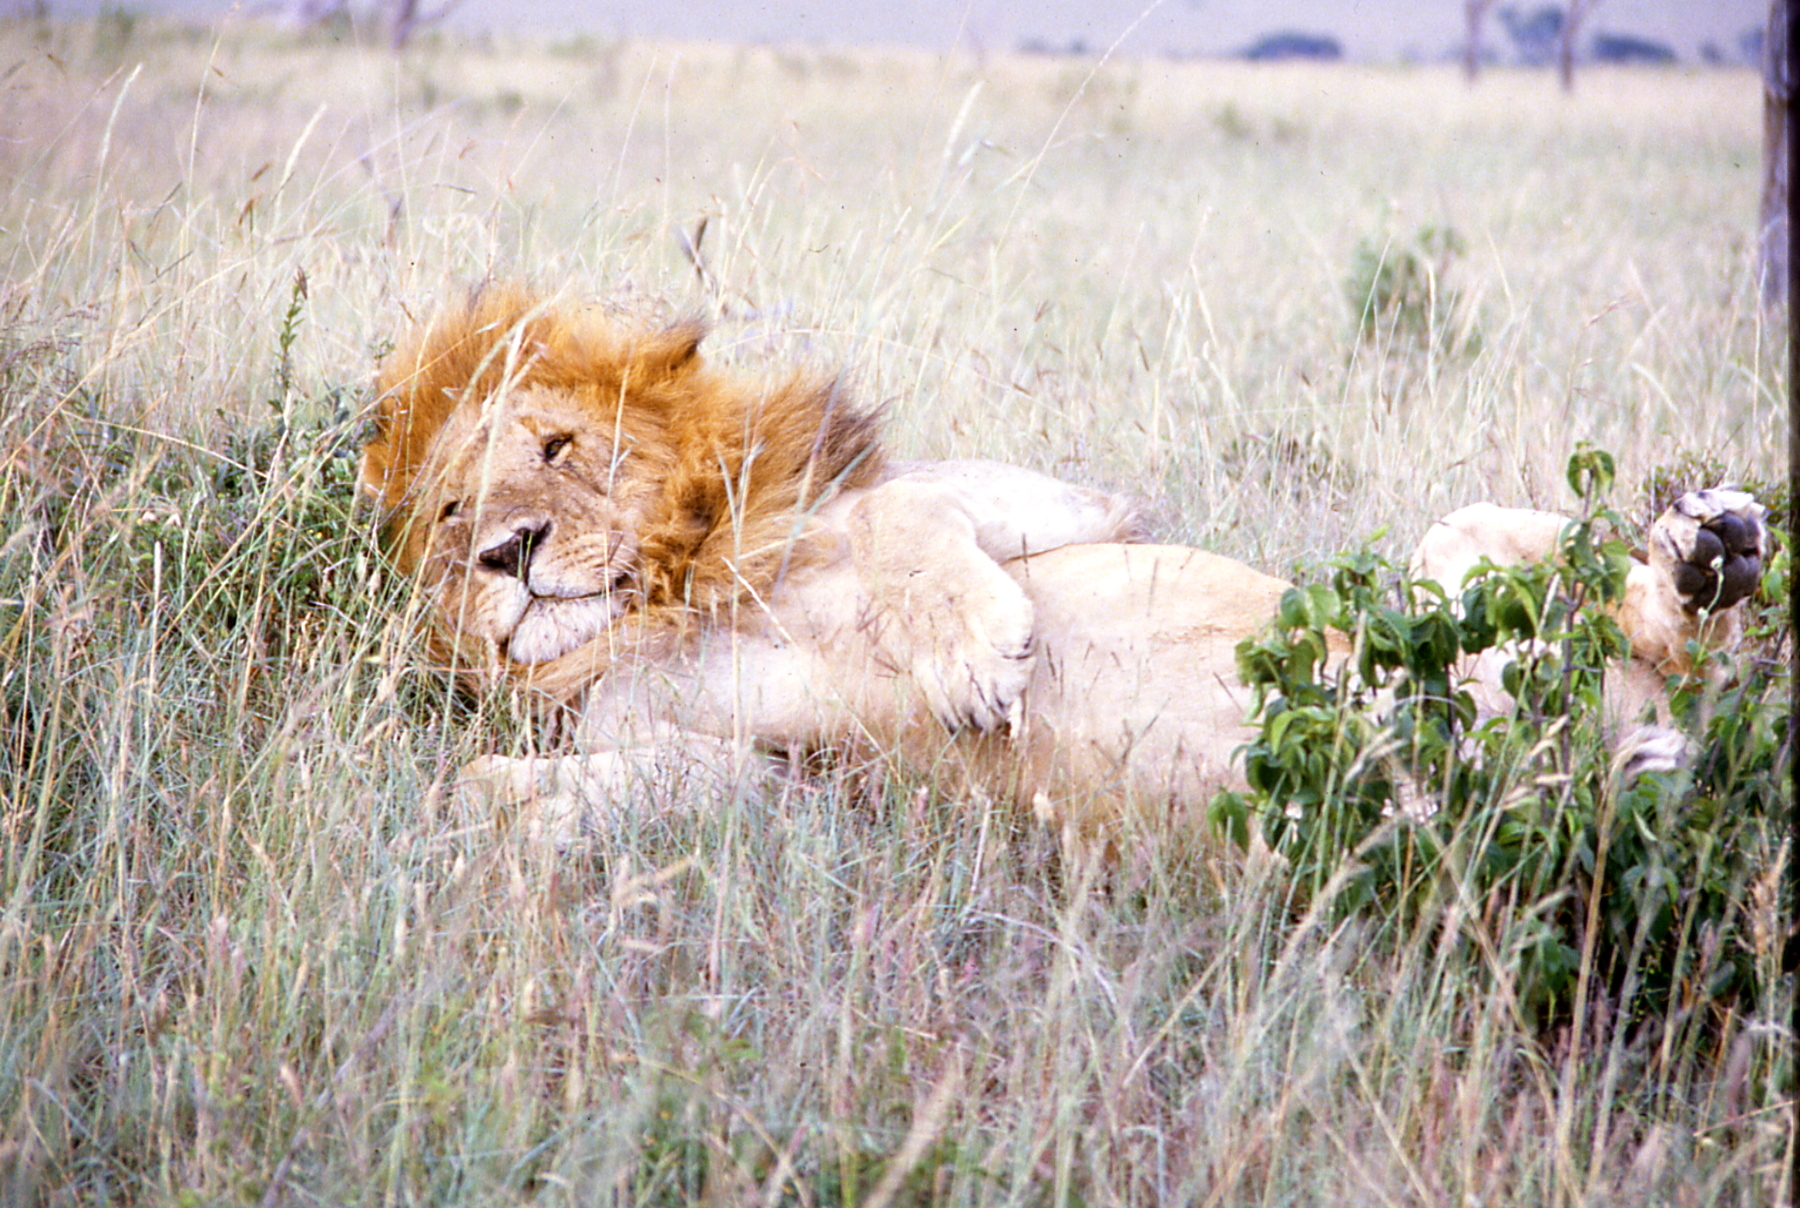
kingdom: Animalia
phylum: Chordata
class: Mammalia
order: Carnivora
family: Felidae
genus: Panthera
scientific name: Panthera leo
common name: Lion
